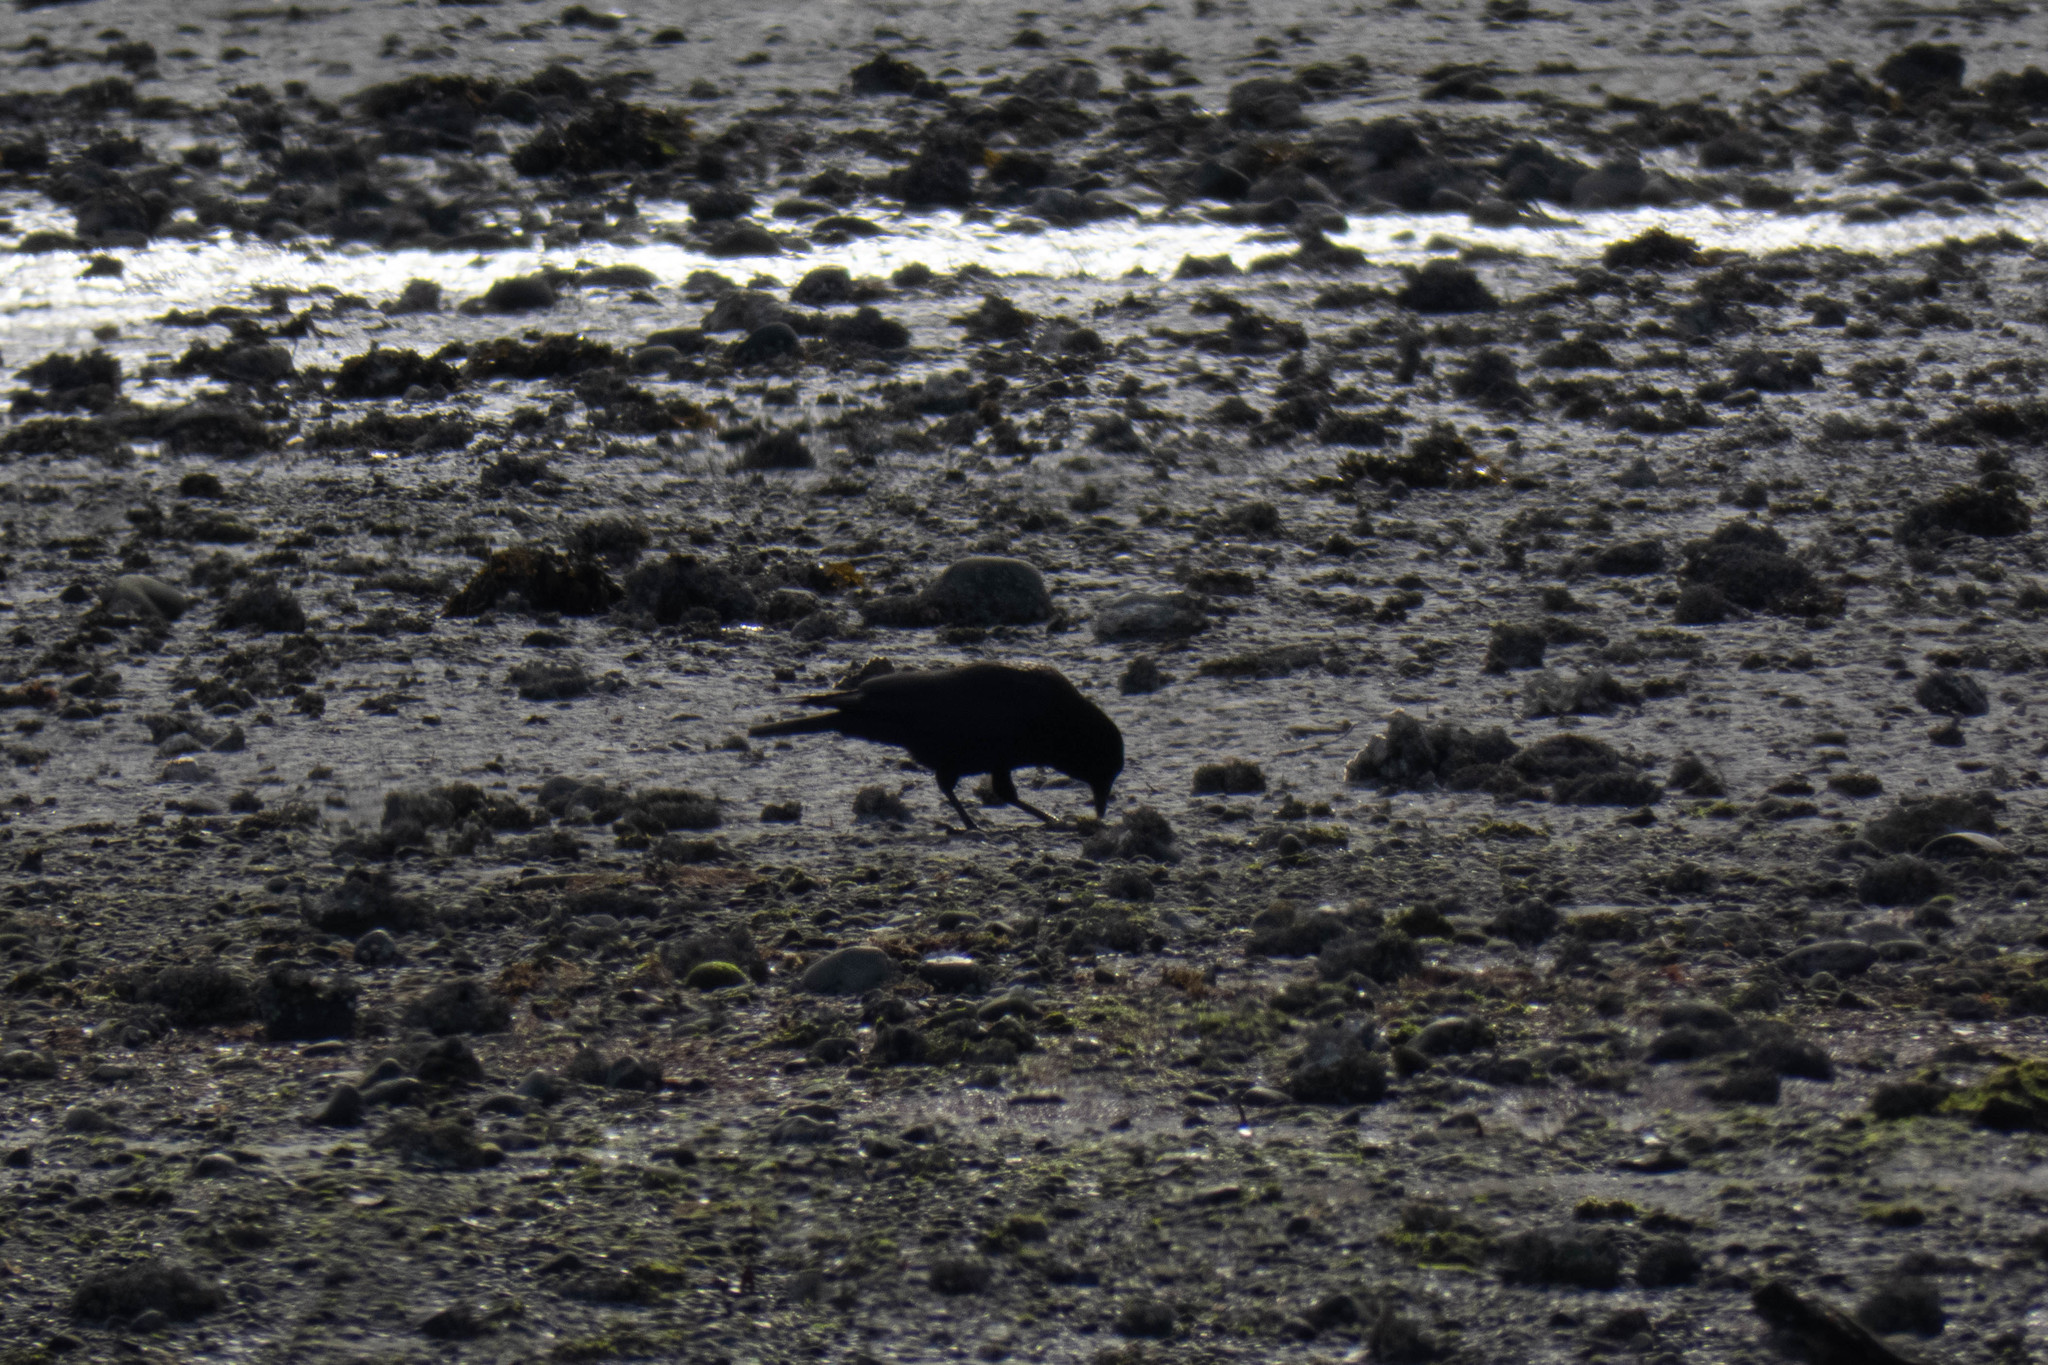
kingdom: Animalia
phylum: Chordata
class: Aves
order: Passeriformes
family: Corvidae
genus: Corvus
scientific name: Corvus brachyrhynchos
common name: American crow
